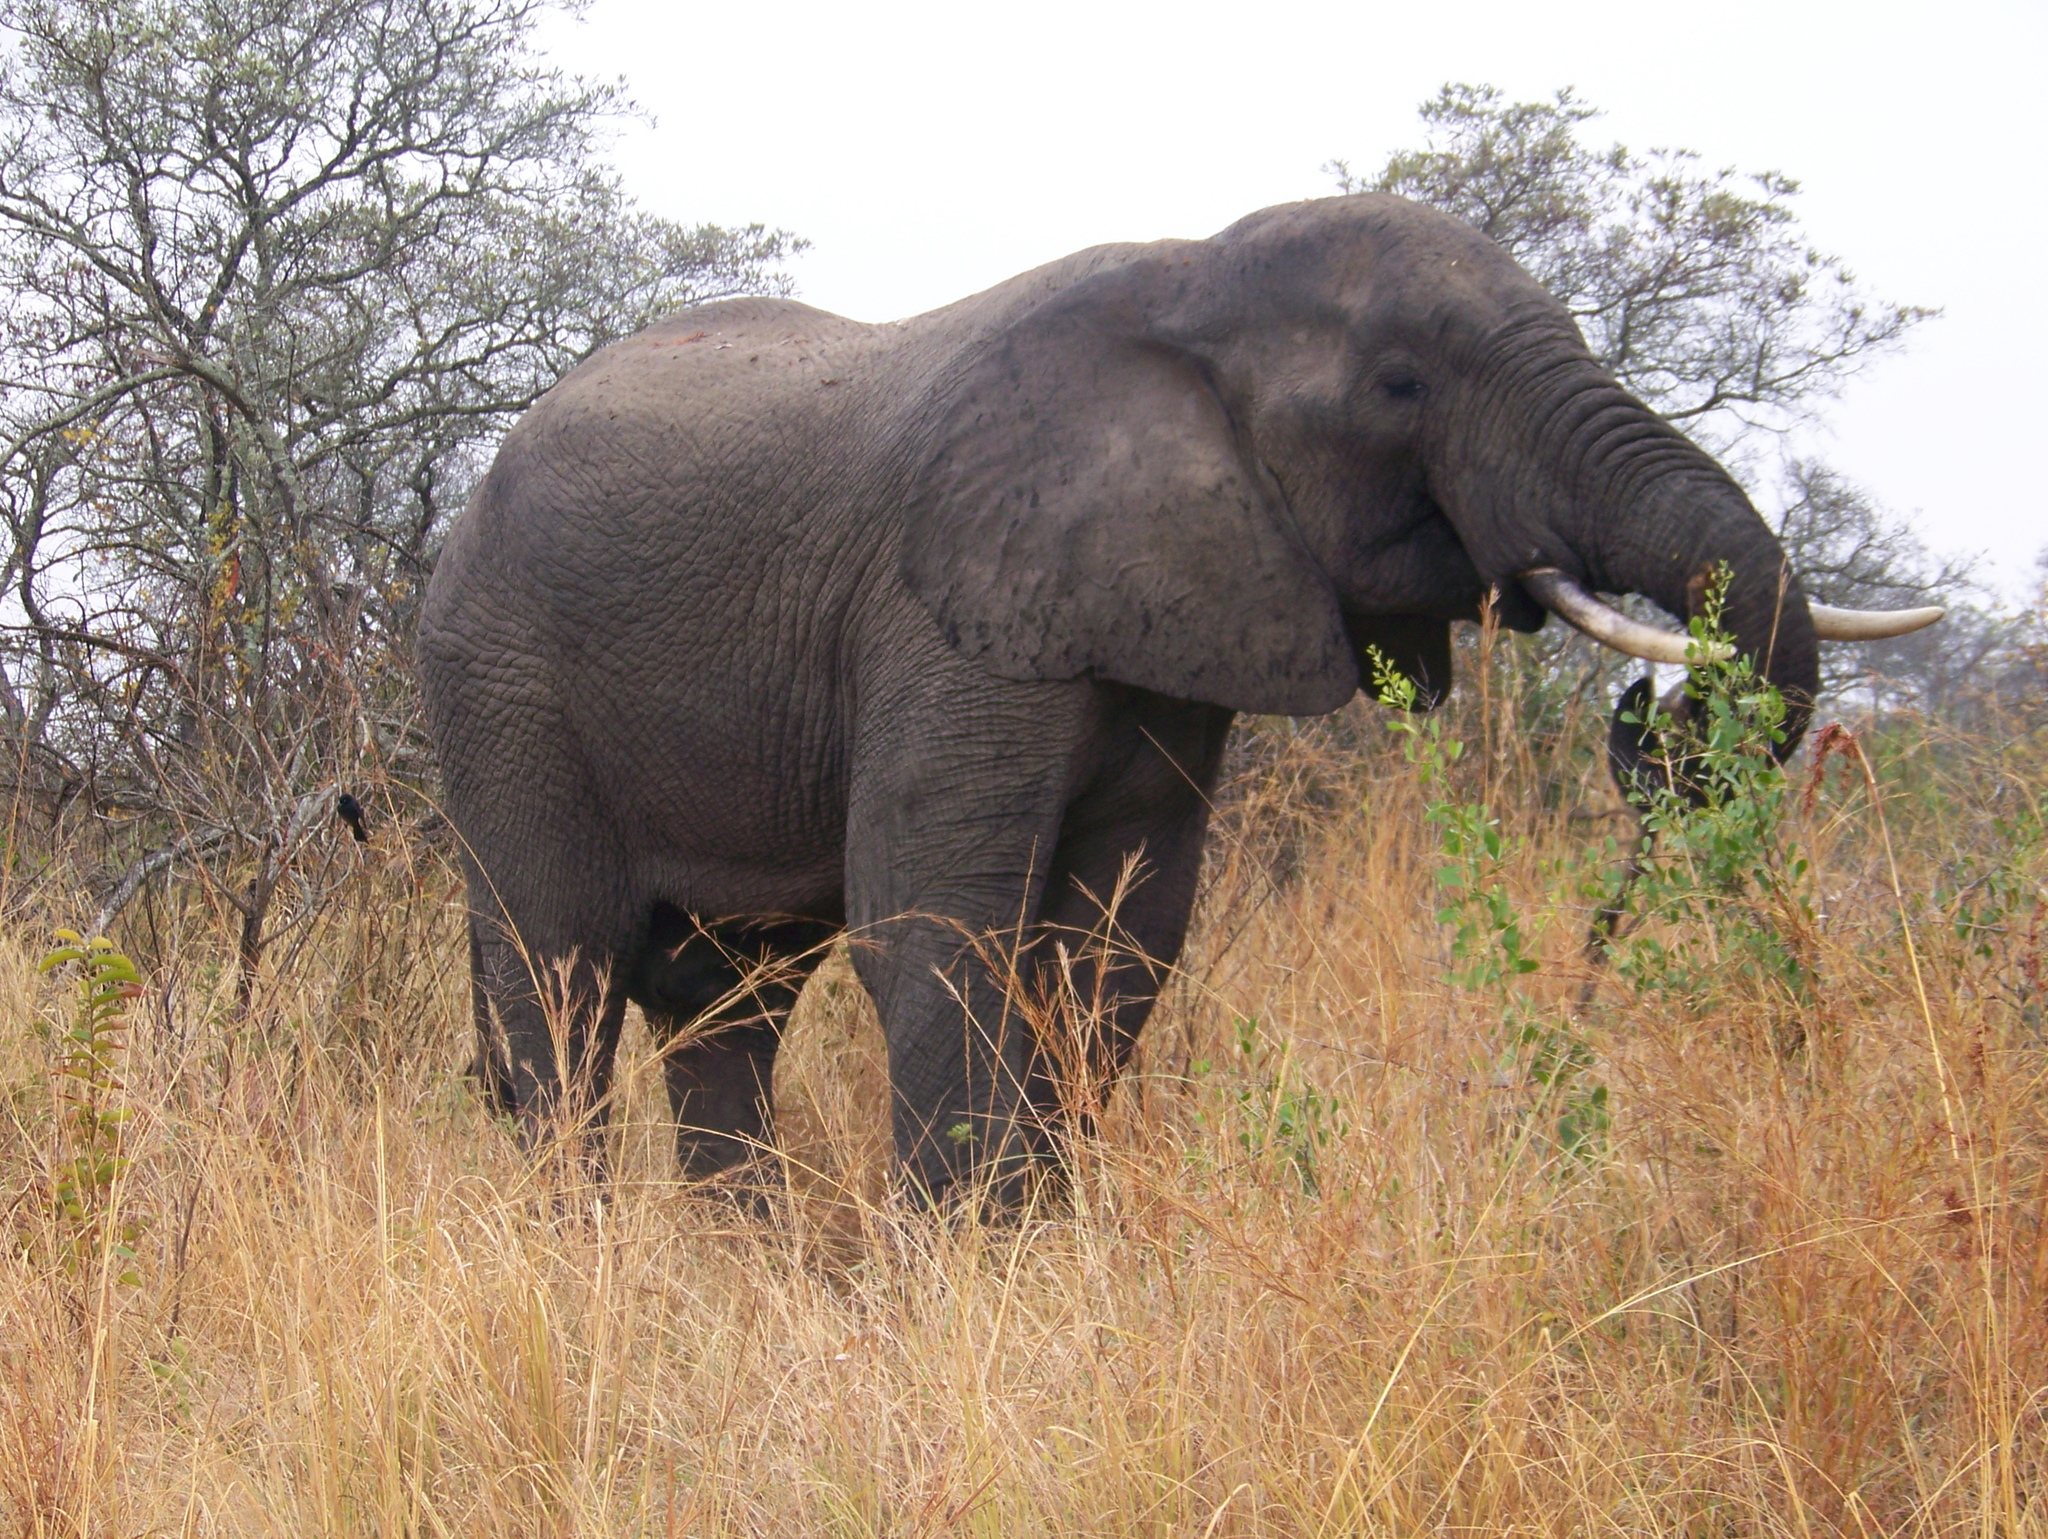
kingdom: Animalia
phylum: Chordata
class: Mammalia
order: Proboscidea
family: Elephantidae
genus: Loxodonta
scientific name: Loxodonta africana
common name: African elephant
